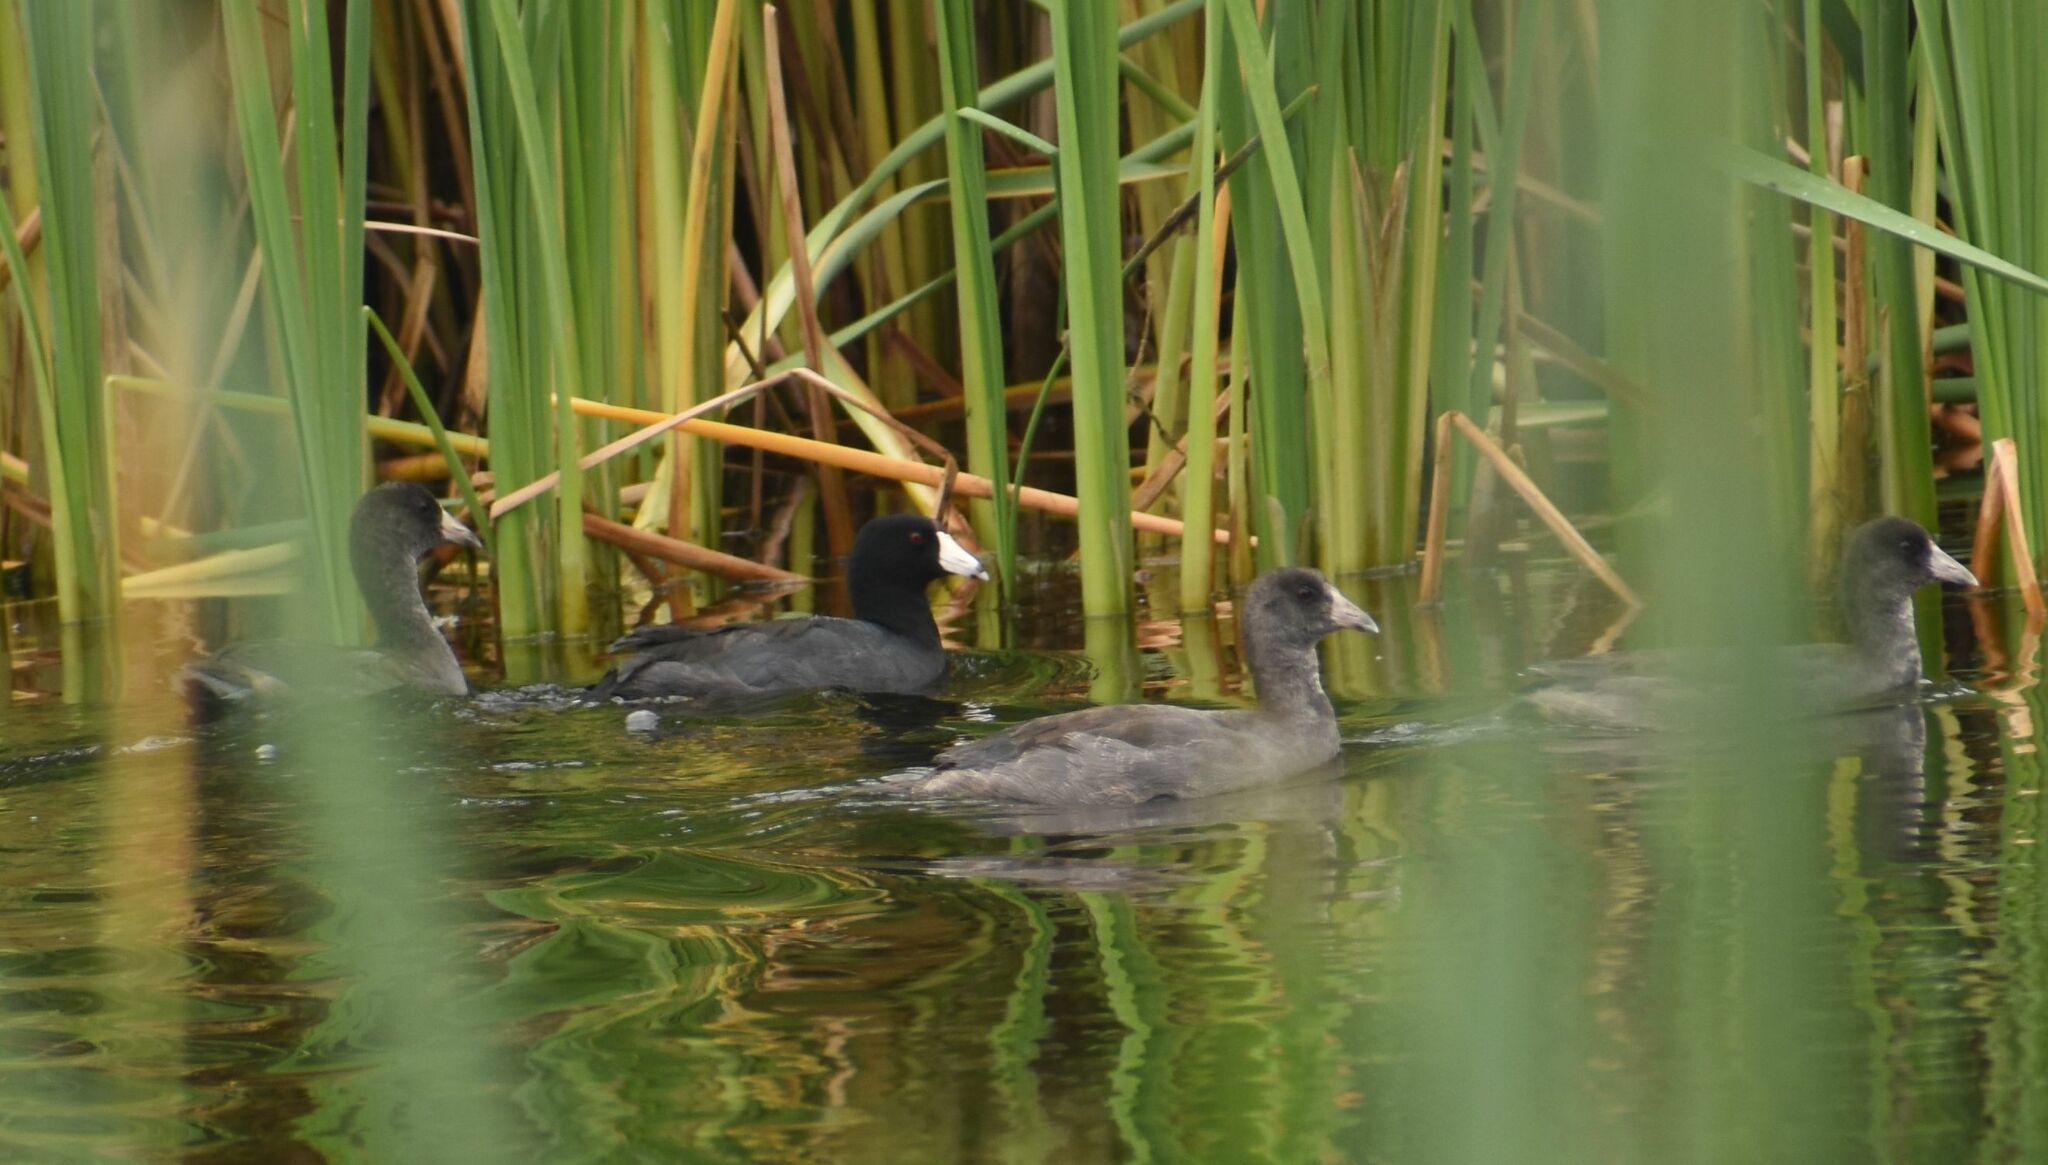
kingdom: Animalia
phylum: Chordata
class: Aves
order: Gruiformes
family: Rallidae
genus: Fulica
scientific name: Fulica americana
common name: American coot
